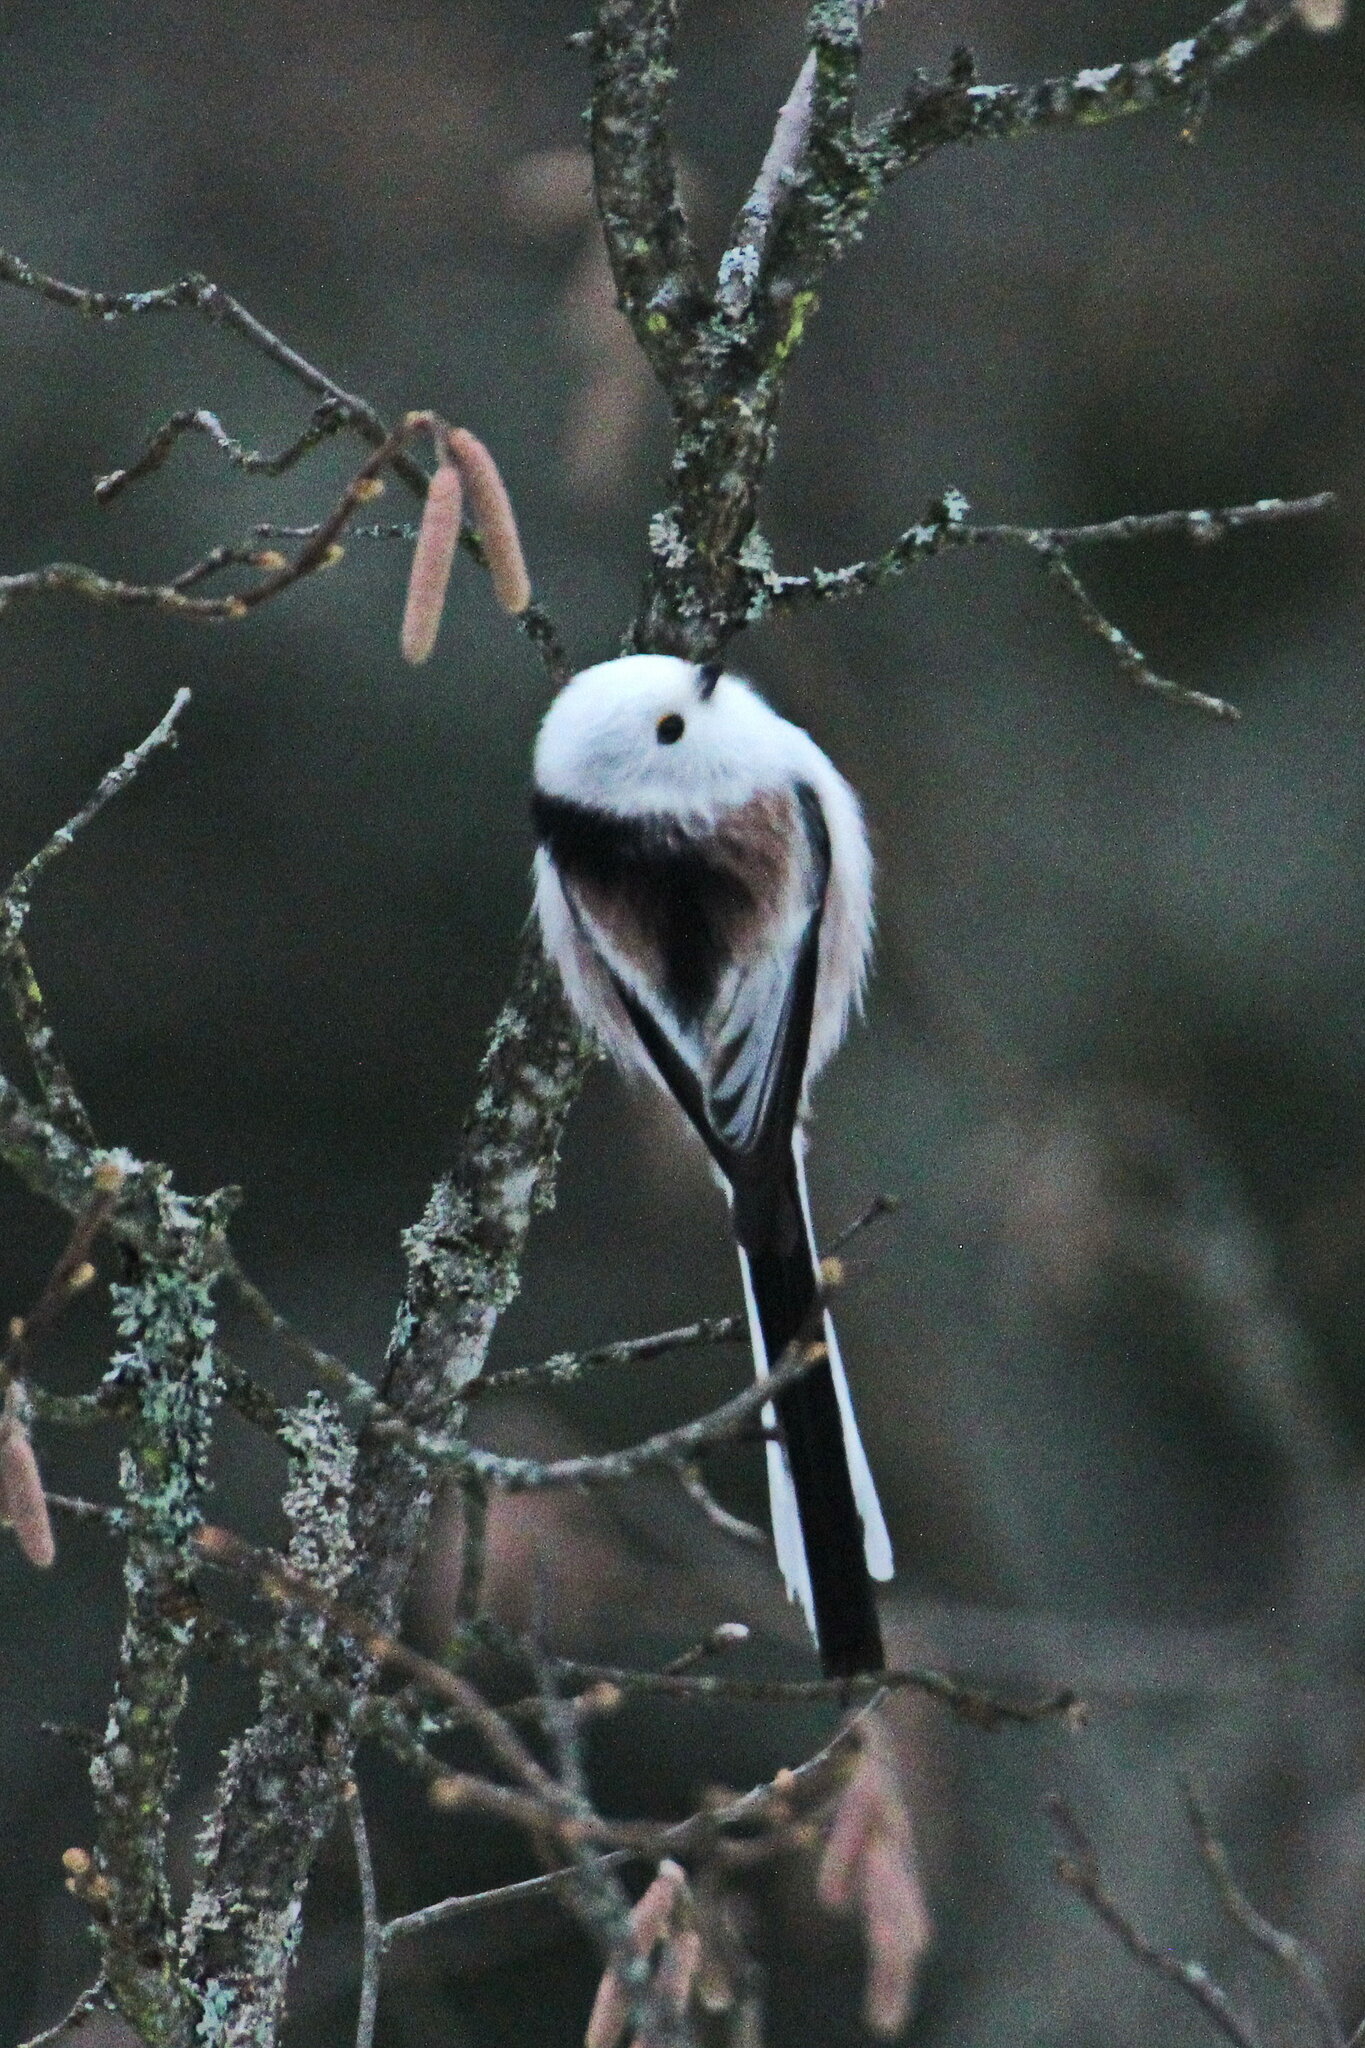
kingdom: Animalia
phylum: Chordata
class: Aves
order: Passeriformes
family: Aegithalidae
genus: Aegithalos
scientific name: Aegithalos caudatus
